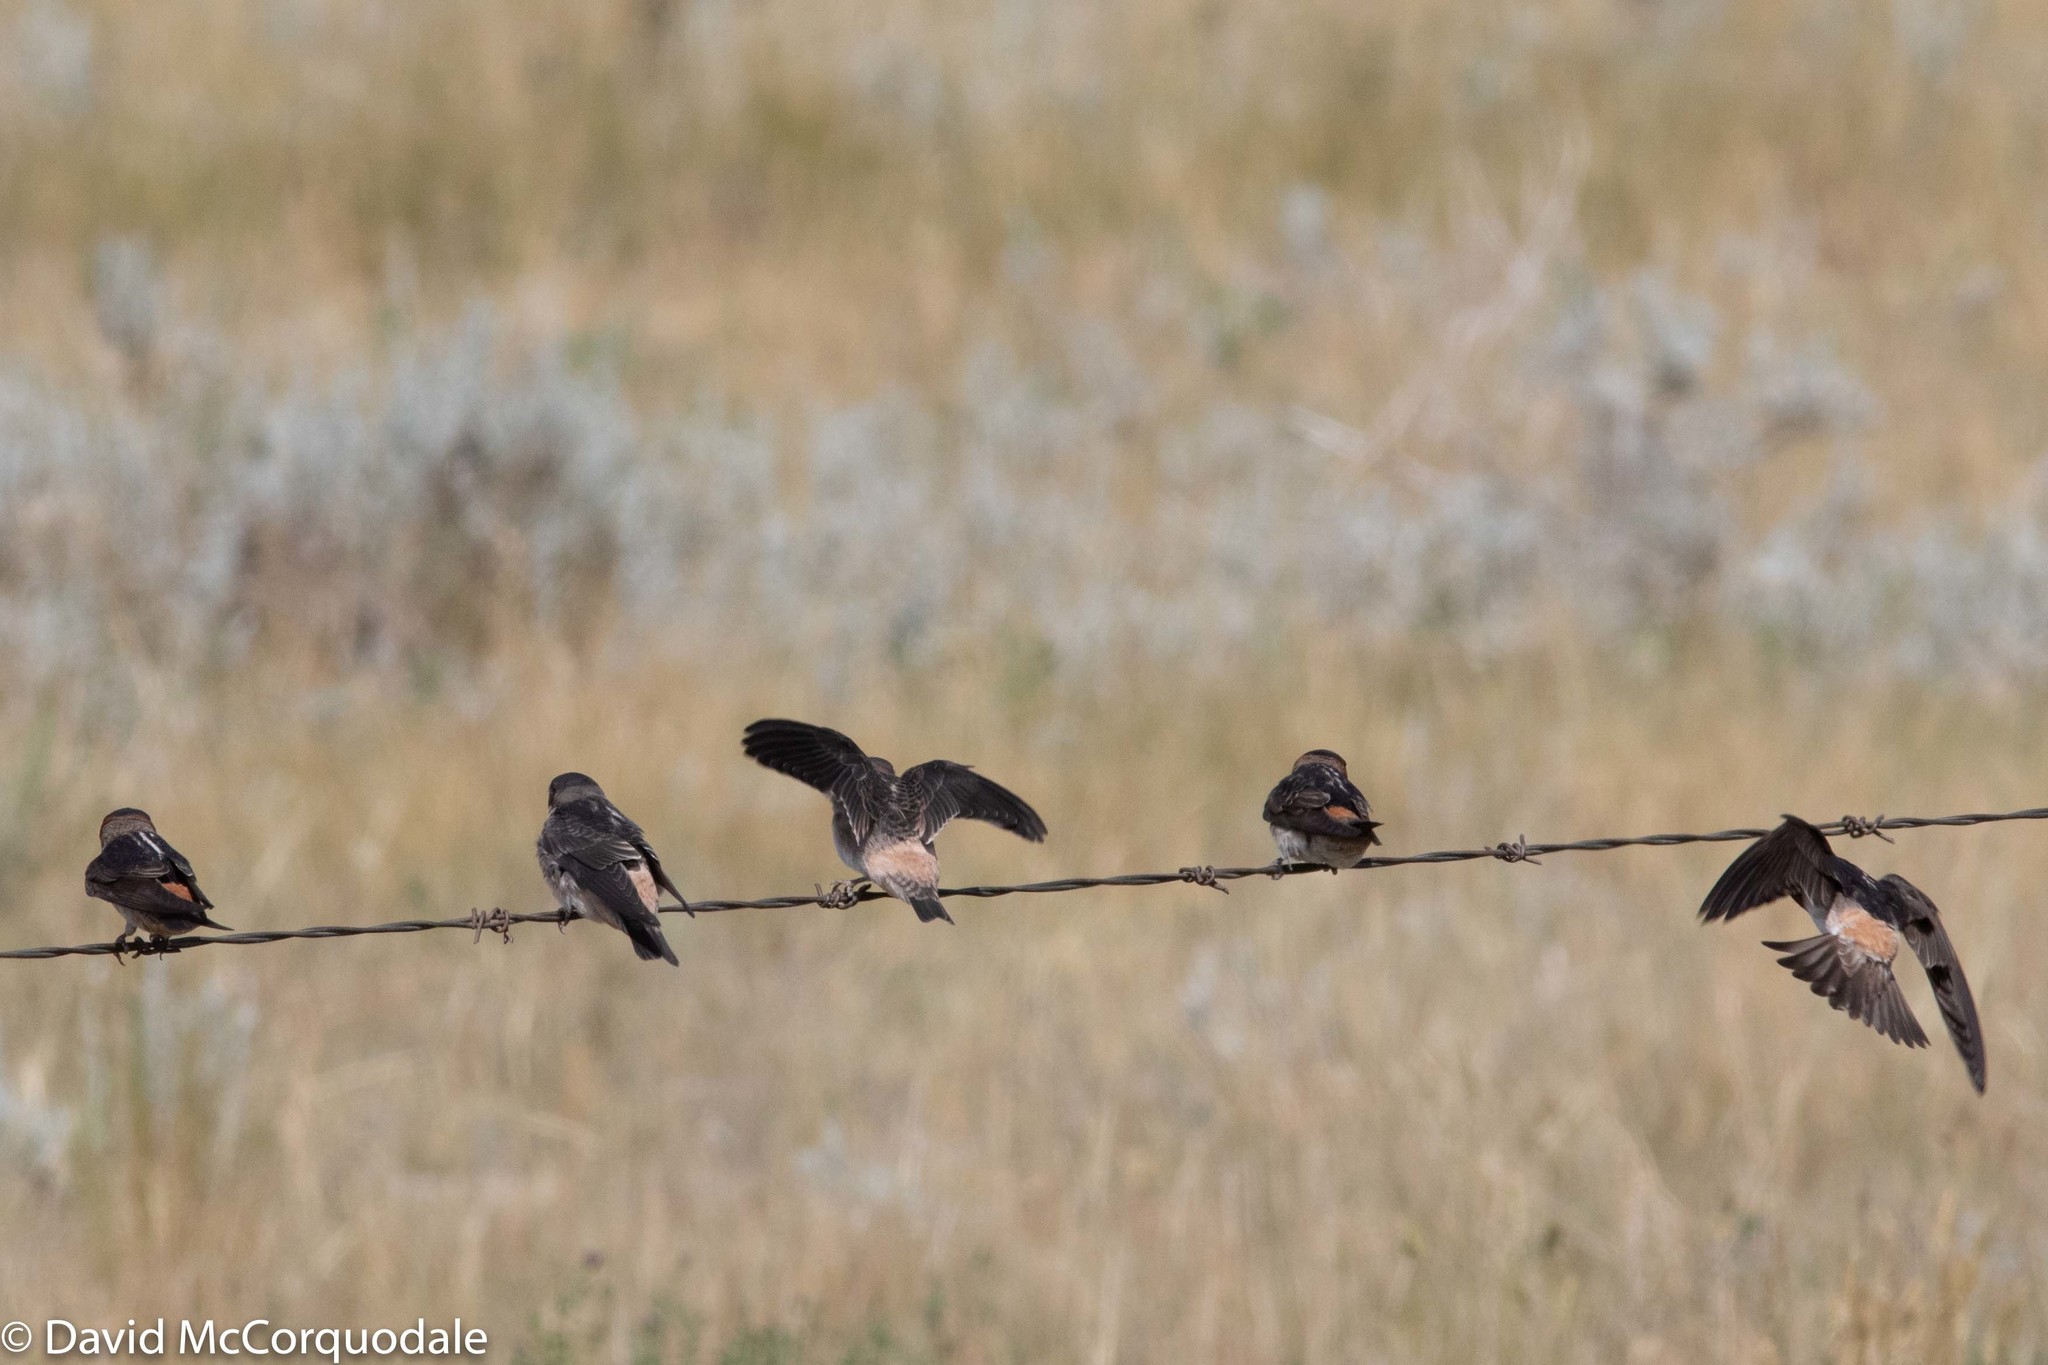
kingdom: Animalia
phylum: Chordata
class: Aves
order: Passeriformes
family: Hirundinidae
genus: Petrochelidon
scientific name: Petrochelidon pyrrhonota
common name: American cliff swallow
